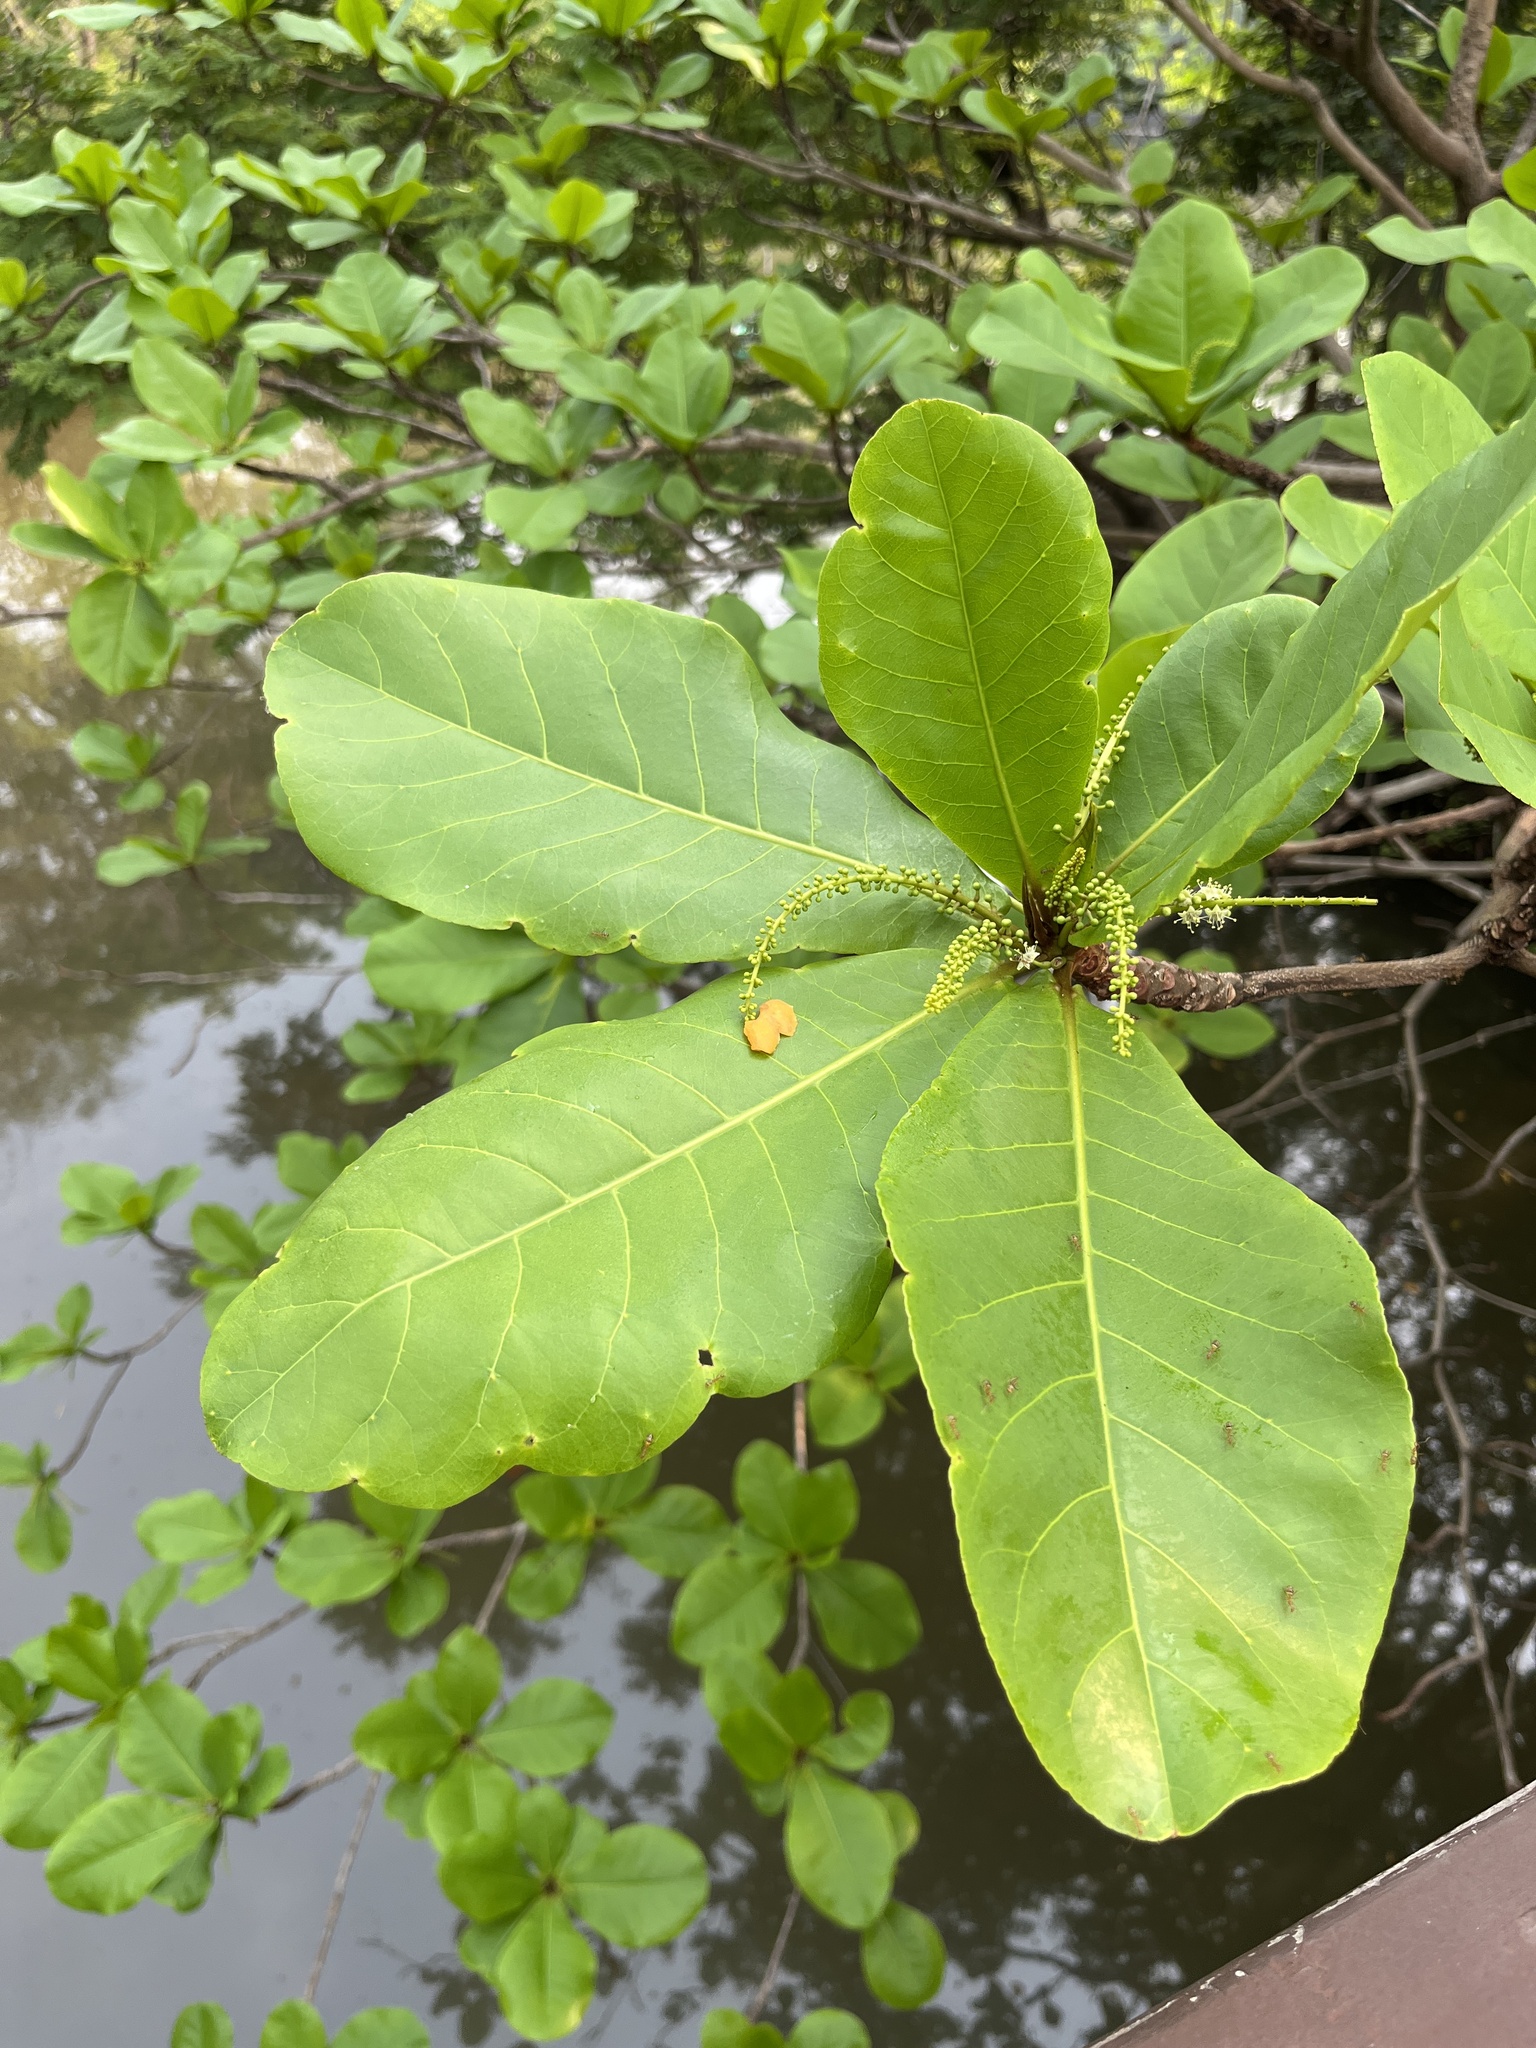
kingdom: Plantae
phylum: Tracheophyta
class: Magnoliopsida
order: Myrtales
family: Combretaceae
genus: Terminalia
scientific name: Terminalia catappa
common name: Tropical almond
